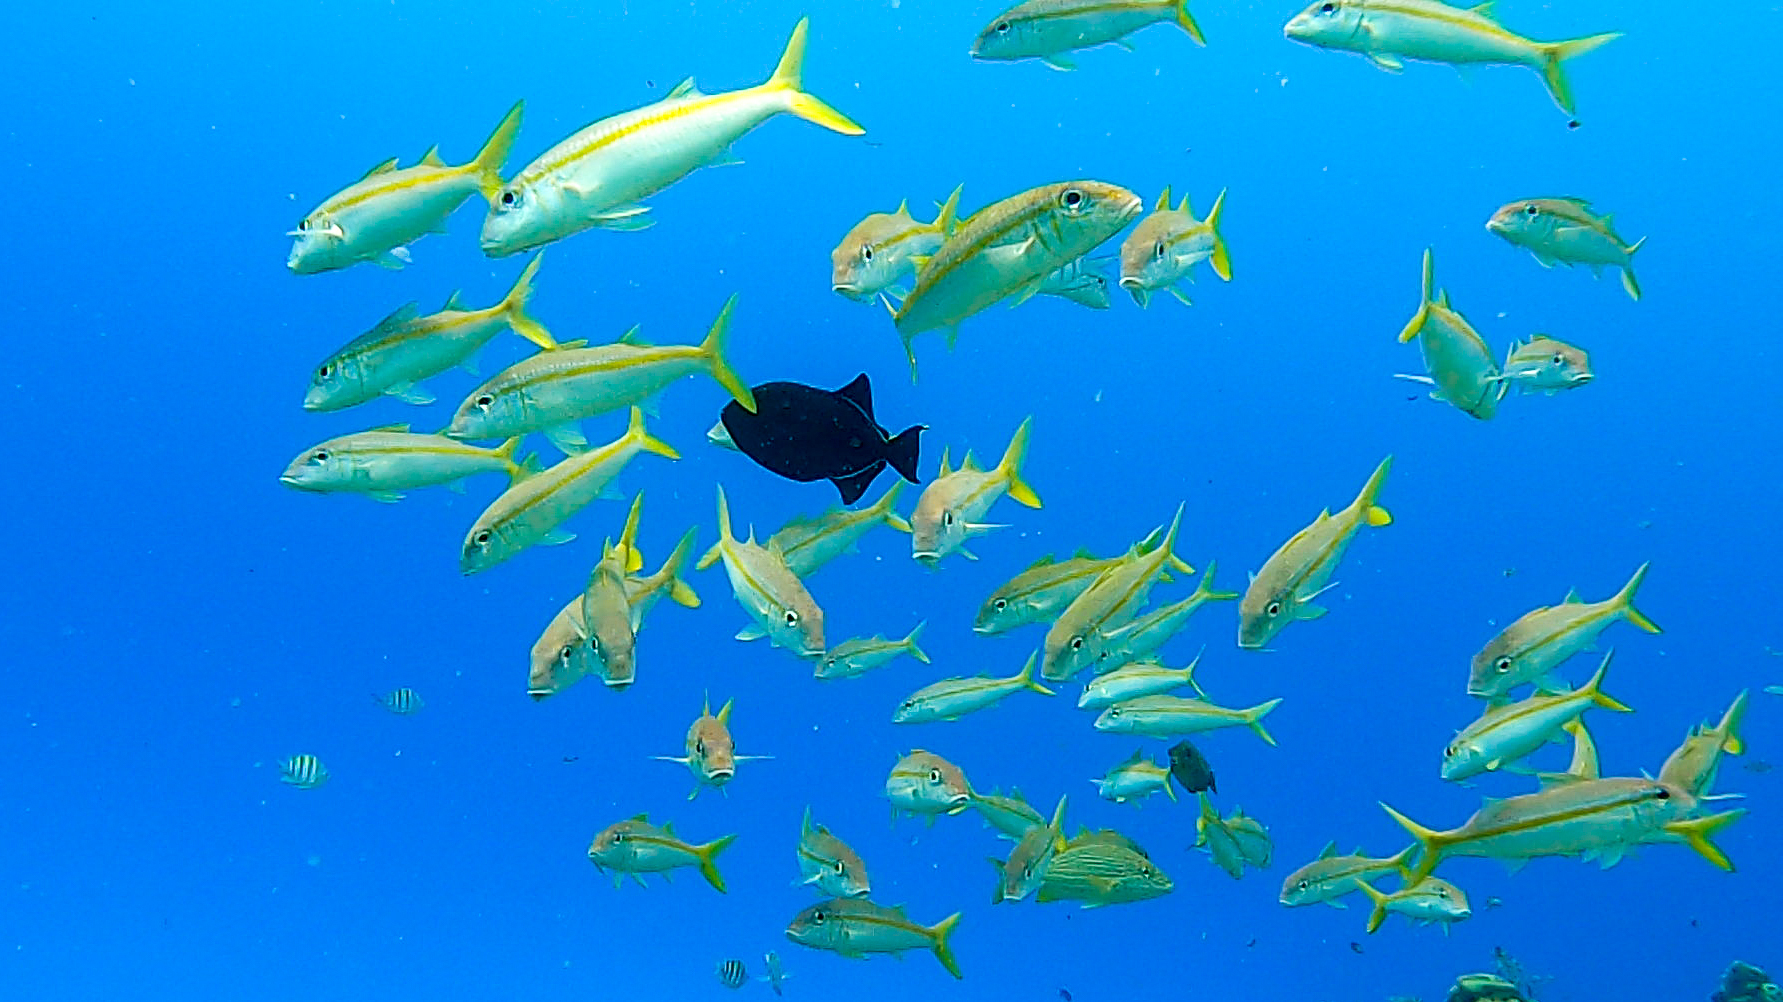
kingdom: Animalia
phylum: Chordata
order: Perciformes
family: Mullidae
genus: Mulloidichthys
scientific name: Mulloidichthys martinicus
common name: Yellow goatfish
